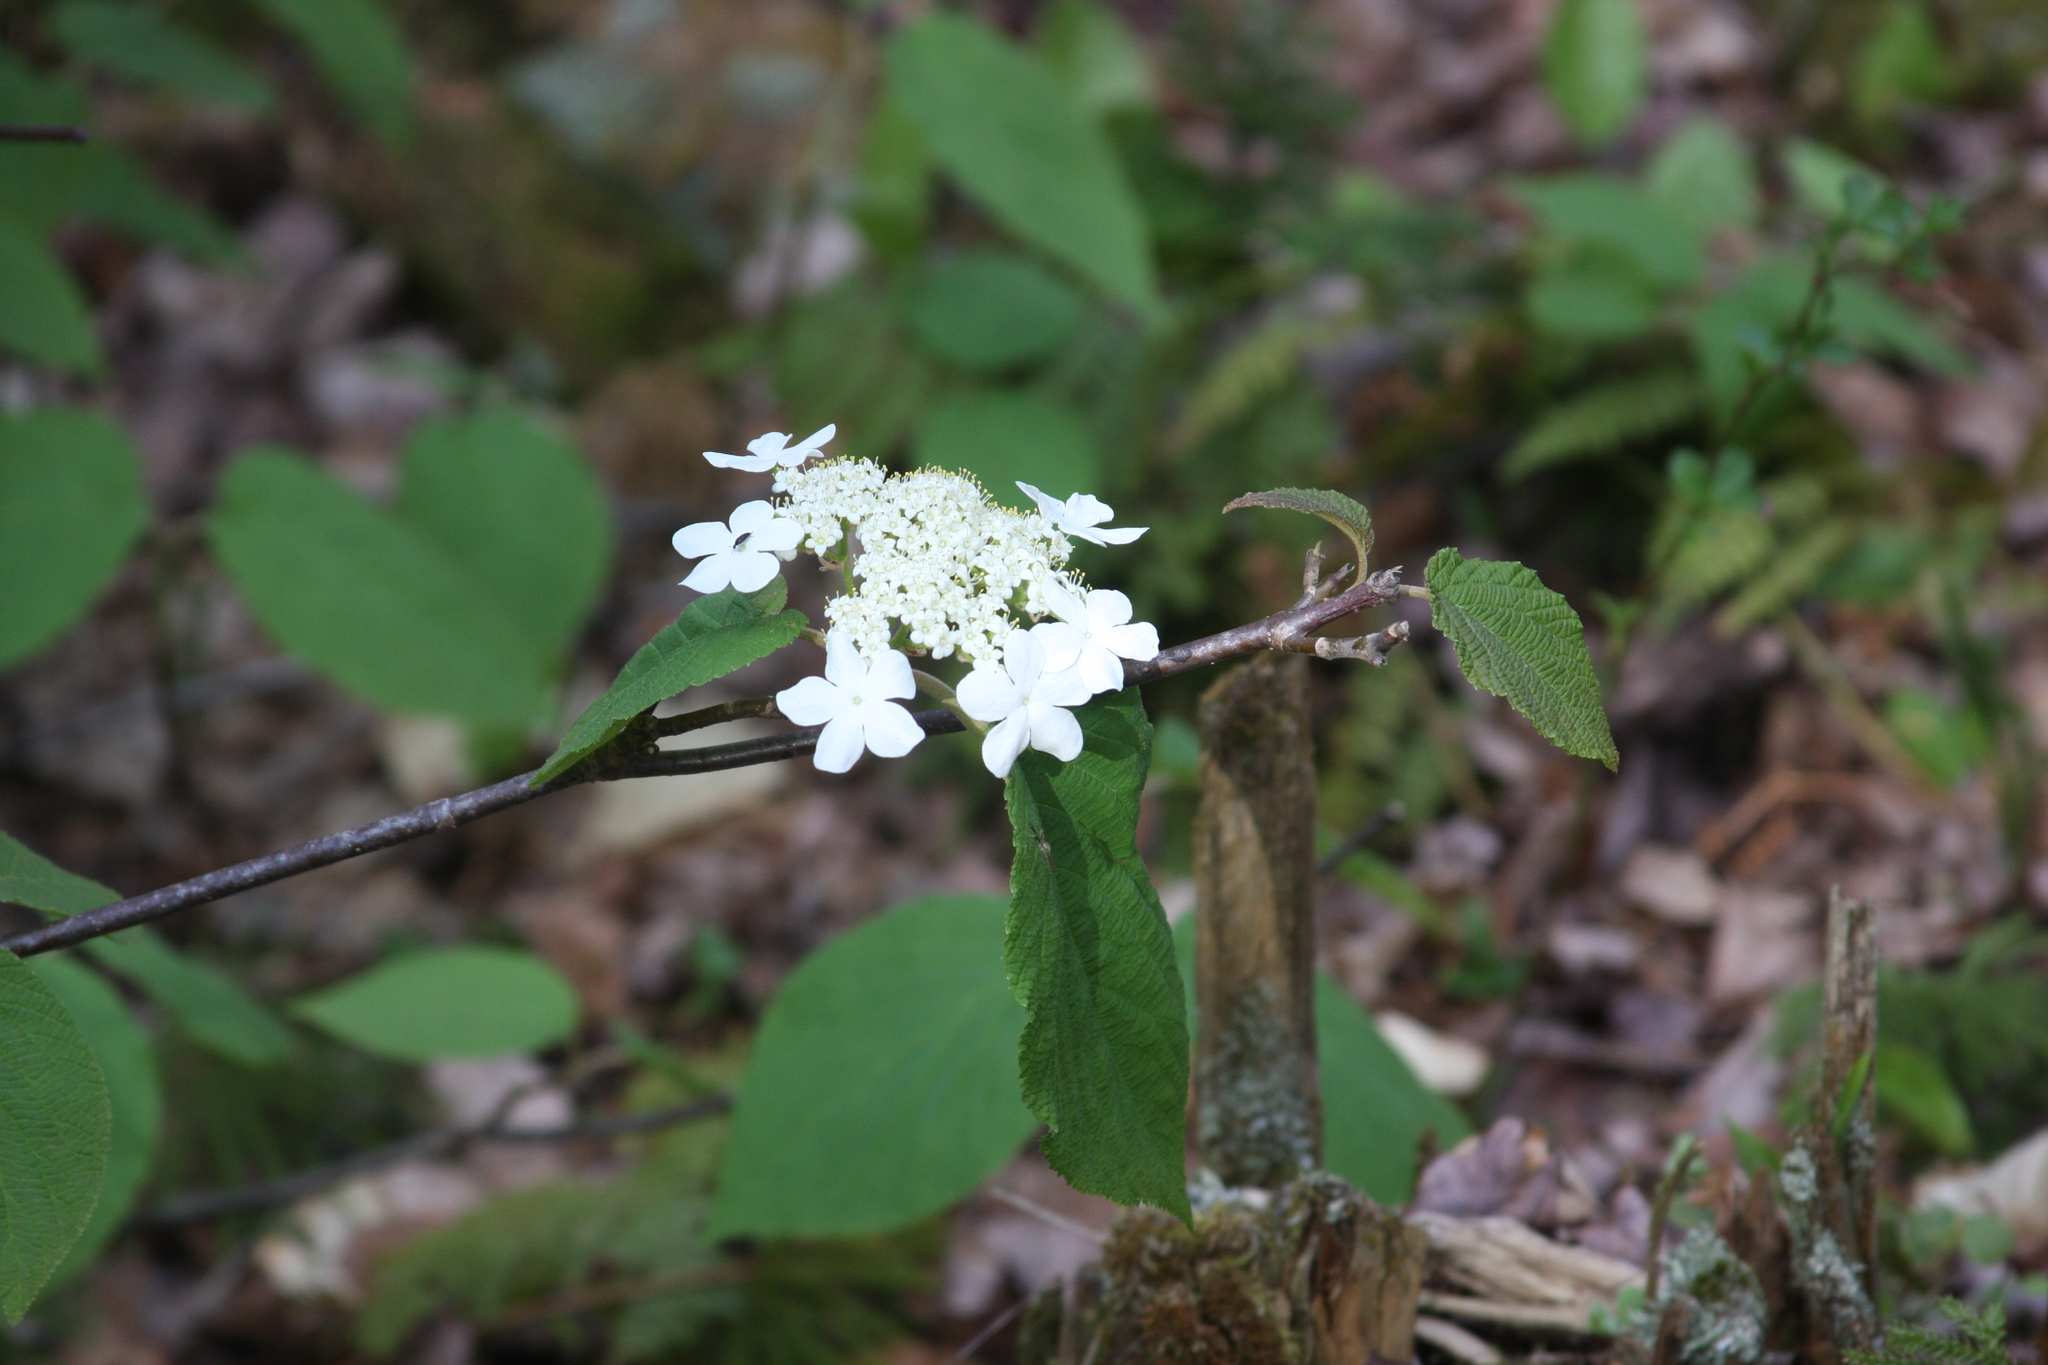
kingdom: Plantae
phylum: Tracheophyta
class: Magnoliopsida
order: Dipsacales
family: Viburnaceae
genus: Viburnum
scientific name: Viburnum lantanoides
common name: Hobblebush
